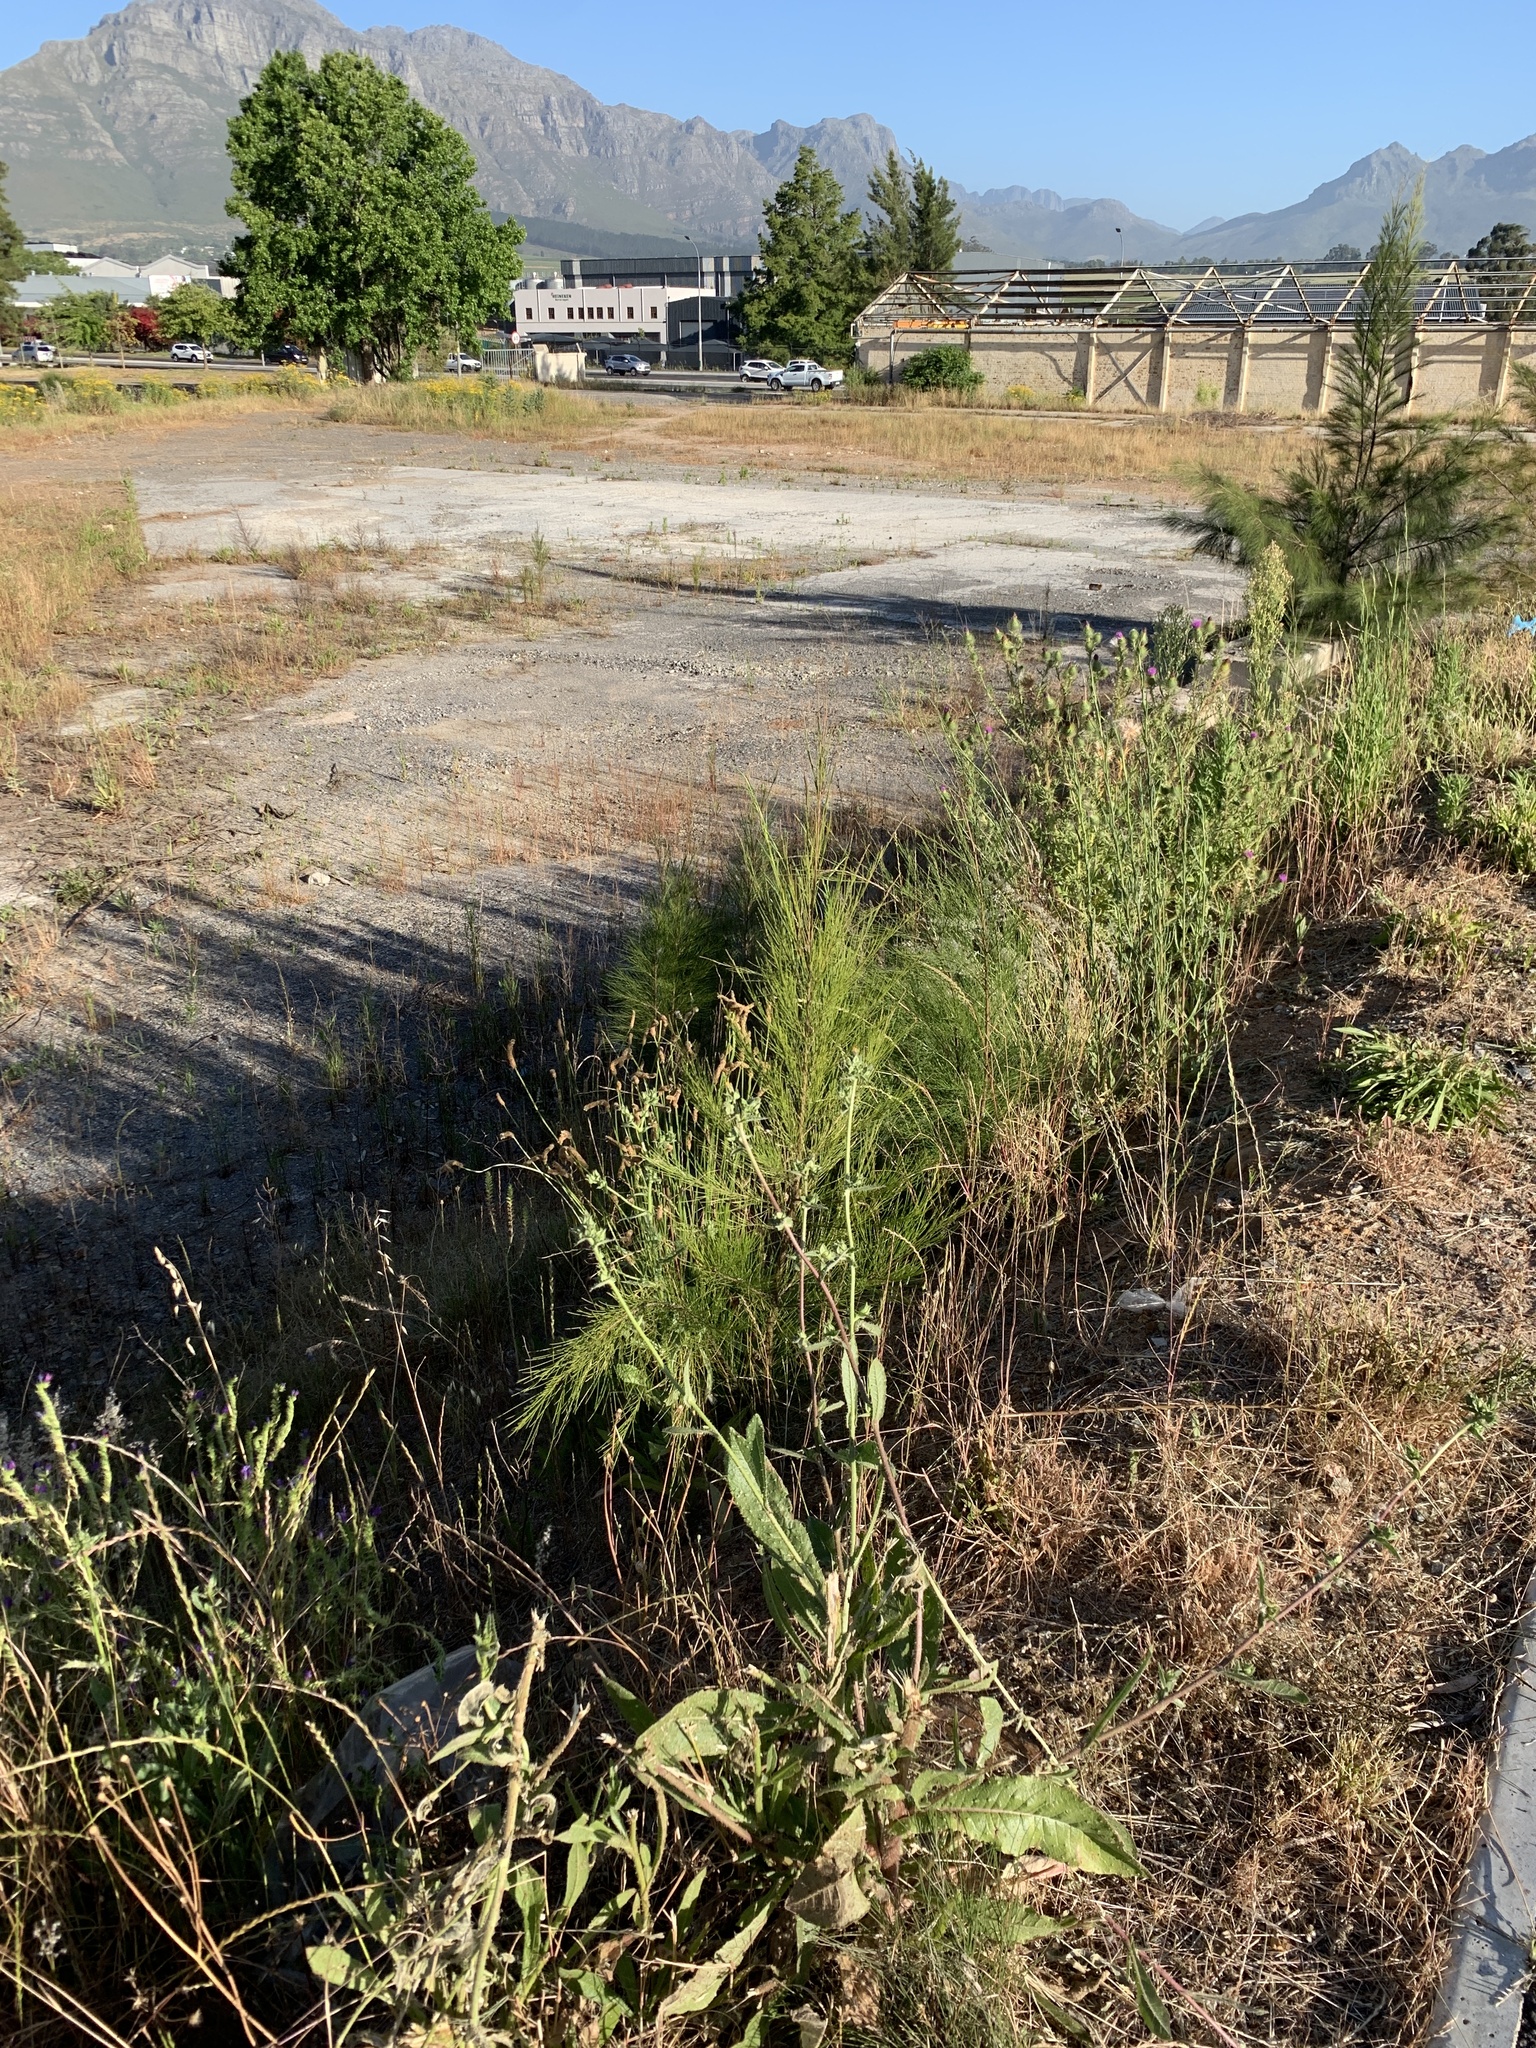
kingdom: Plantae
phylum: Tracheophyta
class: Magnoliopsida
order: Fagales
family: Casuarinaceae
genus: Casuarina
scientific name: Casuarina cunninghamiana
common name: River sheoak
